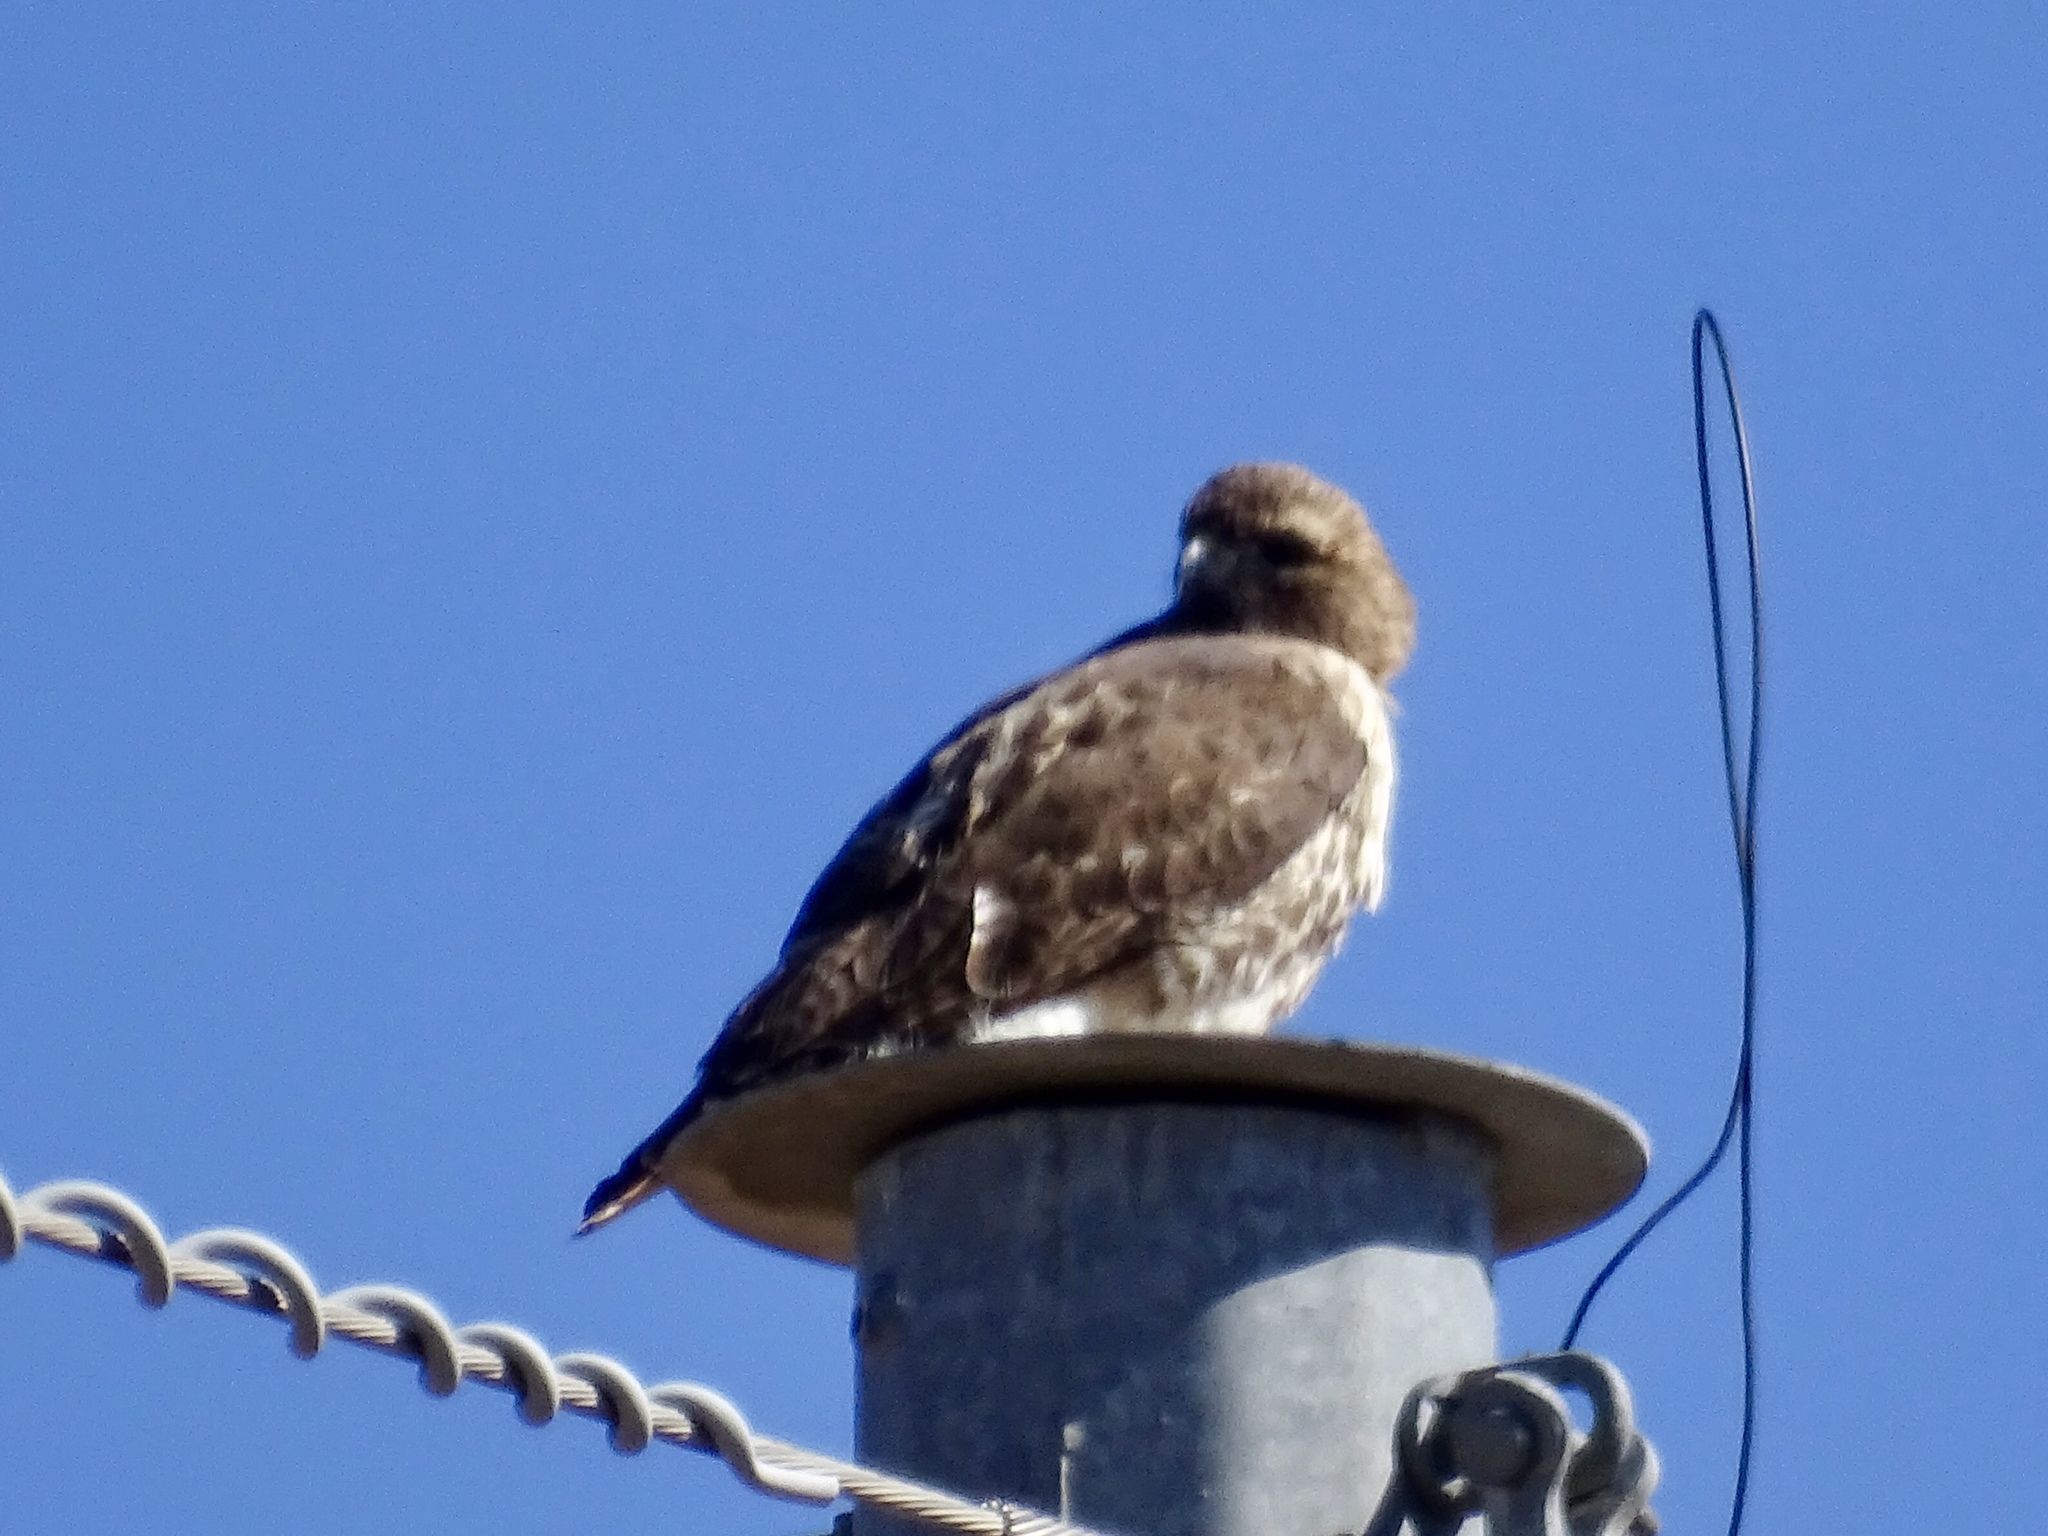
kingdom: Animalia
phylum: Chordata
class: Aves
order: Accipitriformes
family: Accipitridae
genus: Buteo
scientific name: Buteo jamaicensis
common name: Red-tailed hawk
